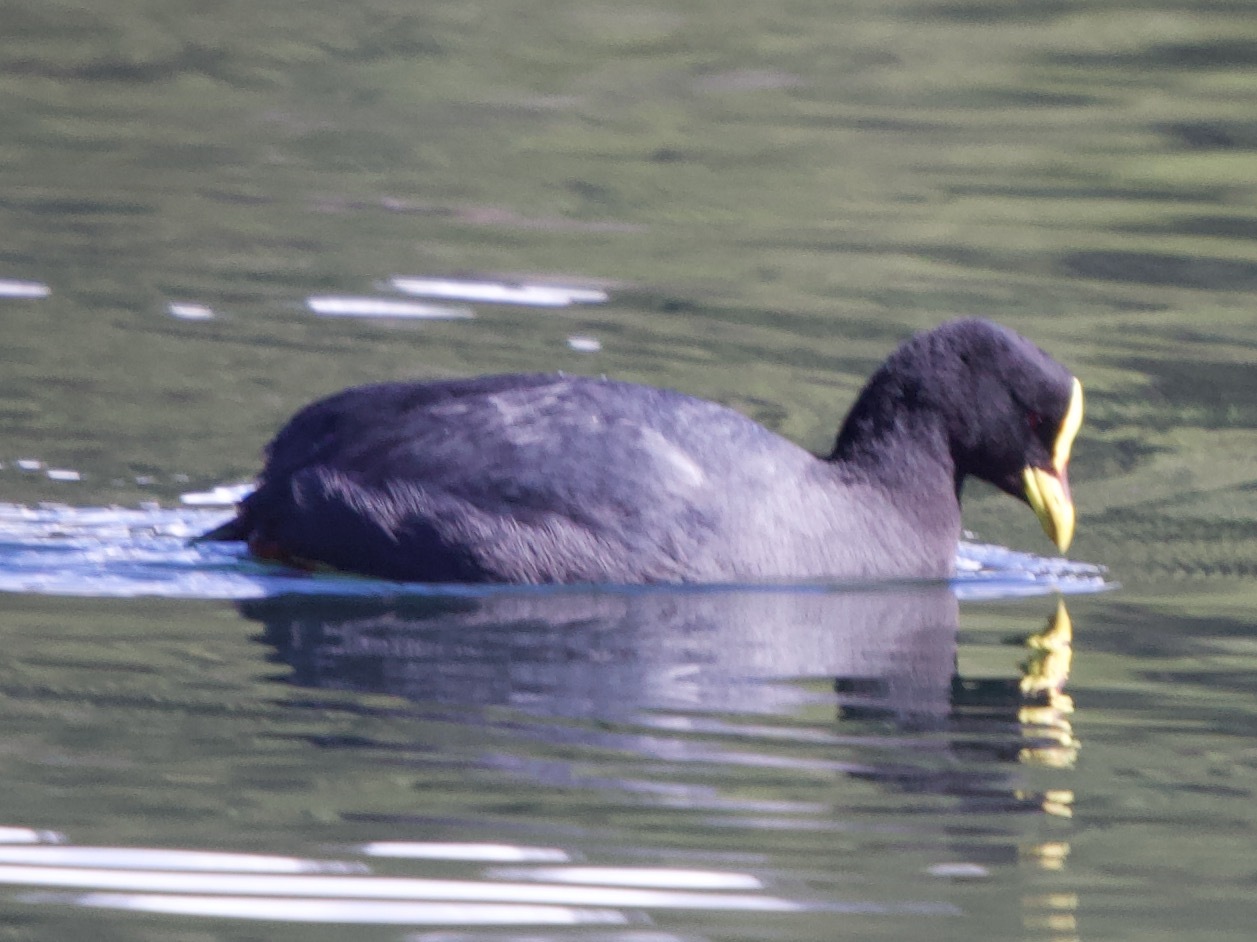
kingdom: Animalia
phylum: Chordata
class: Aves
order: Gruiformes
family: Rallidae
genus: Fulica
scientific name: Fulica armillata
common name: Red-gartered coot
